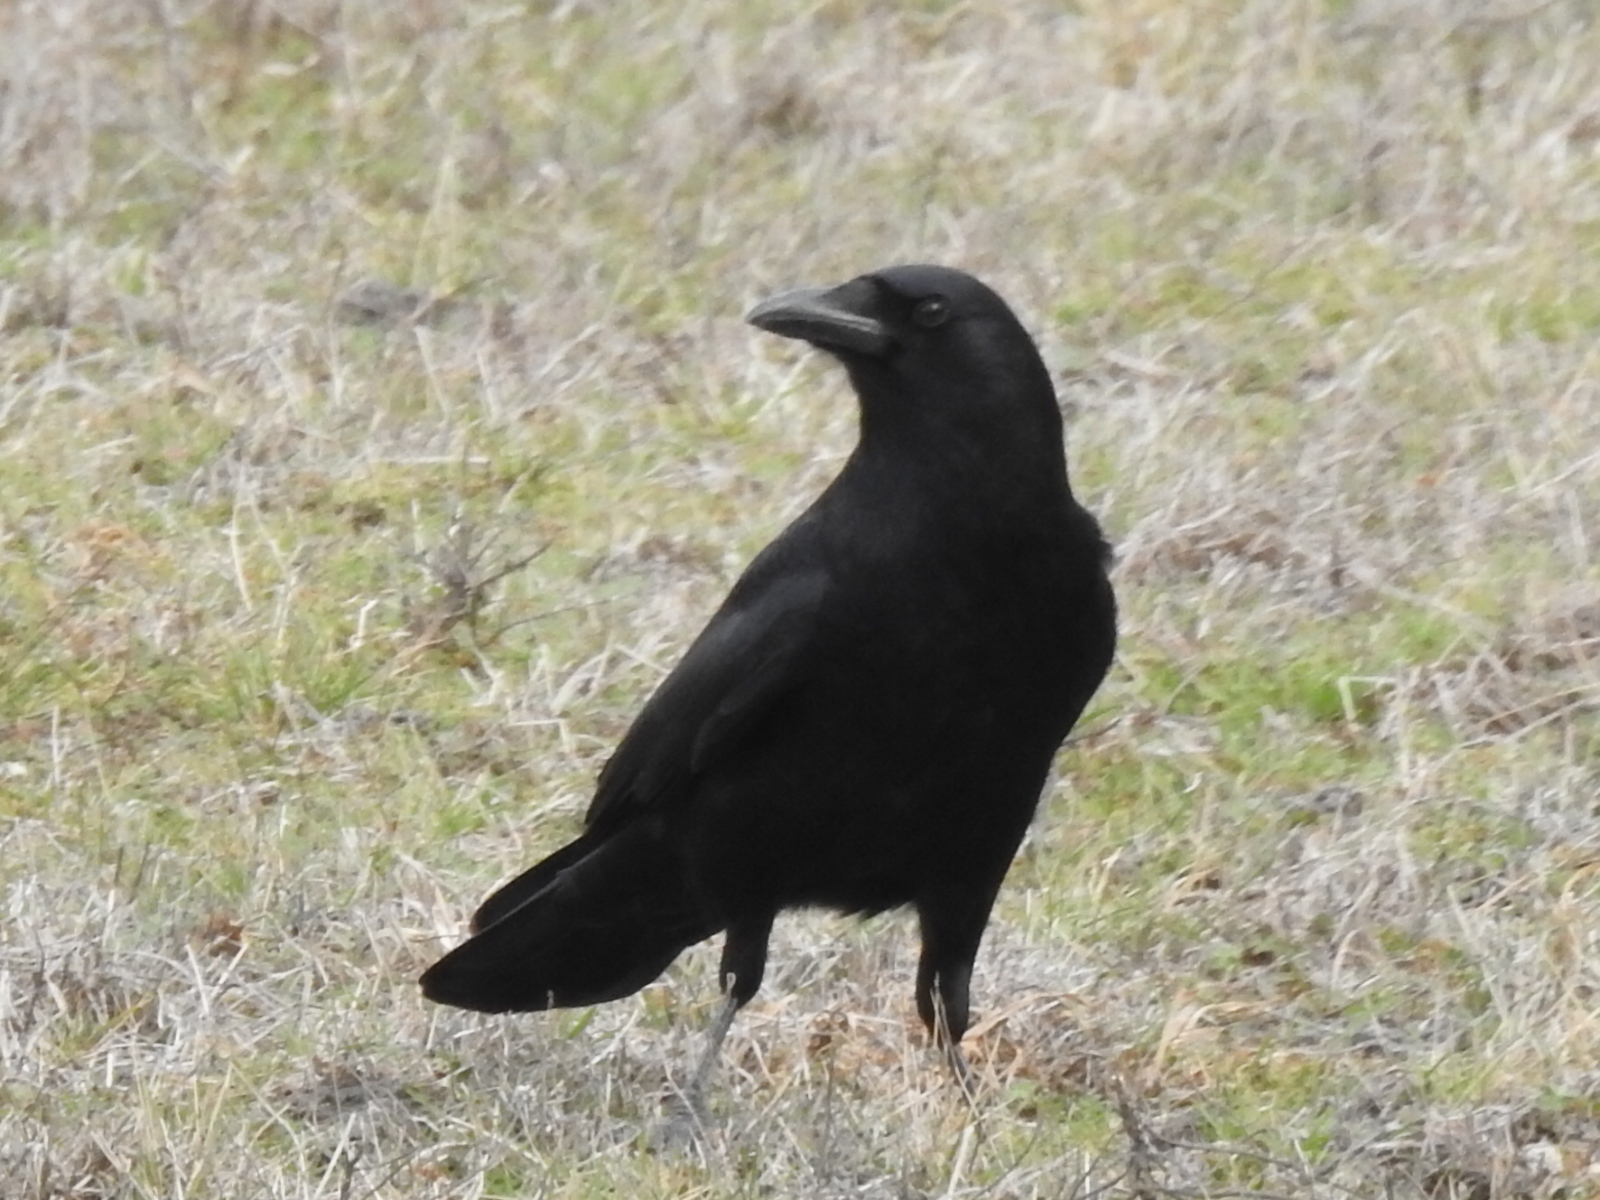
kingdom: Animalia
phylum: Chordata
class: Aves
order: Passeriformes
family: Corvidae
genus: Corvus
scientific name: Corvus brachyrhynchos
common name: American crow
